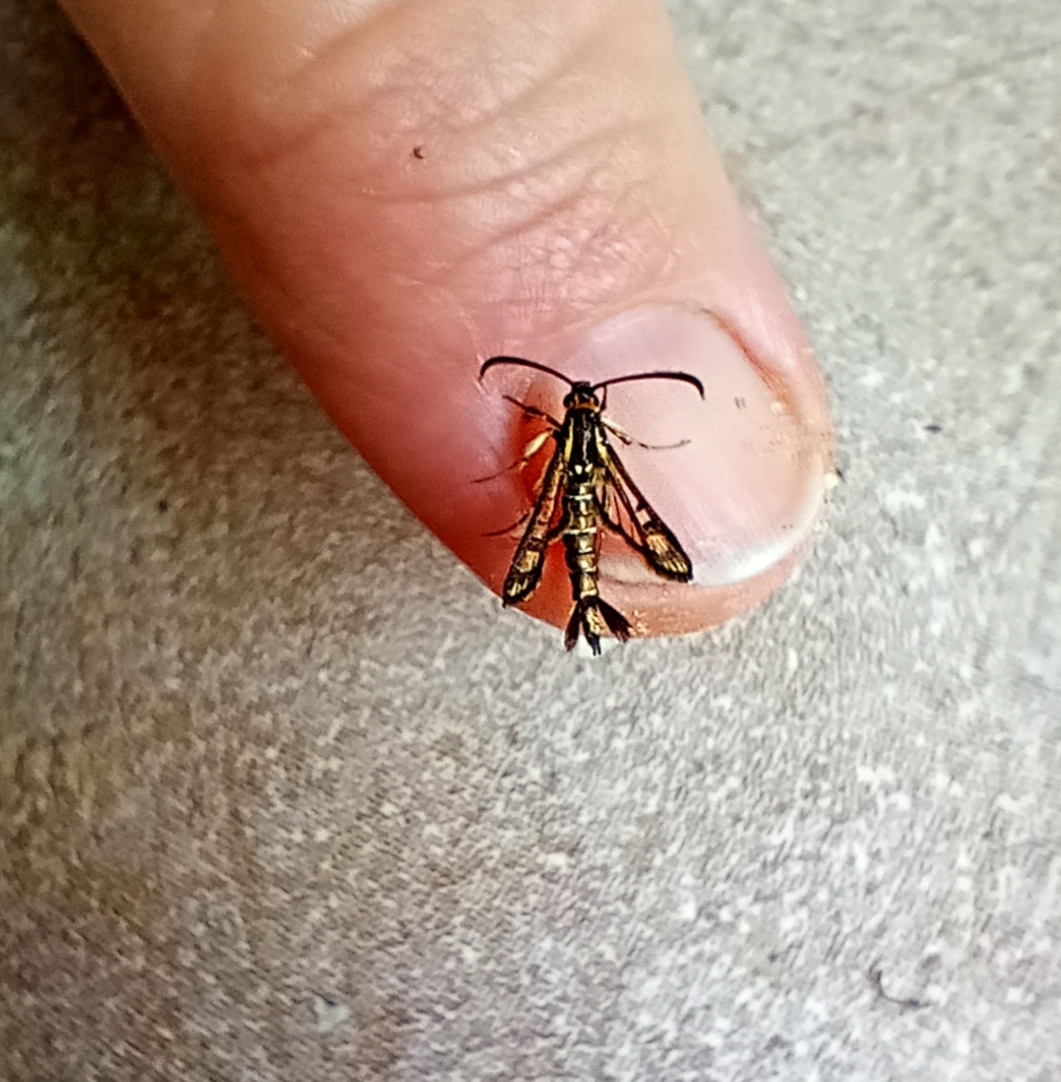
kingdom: Animalia
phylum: Arthropoda
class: Insecta
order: Lepidoptera
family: Sesiidae
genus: Pyropteron
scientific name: Pyropteron triannuliformis
